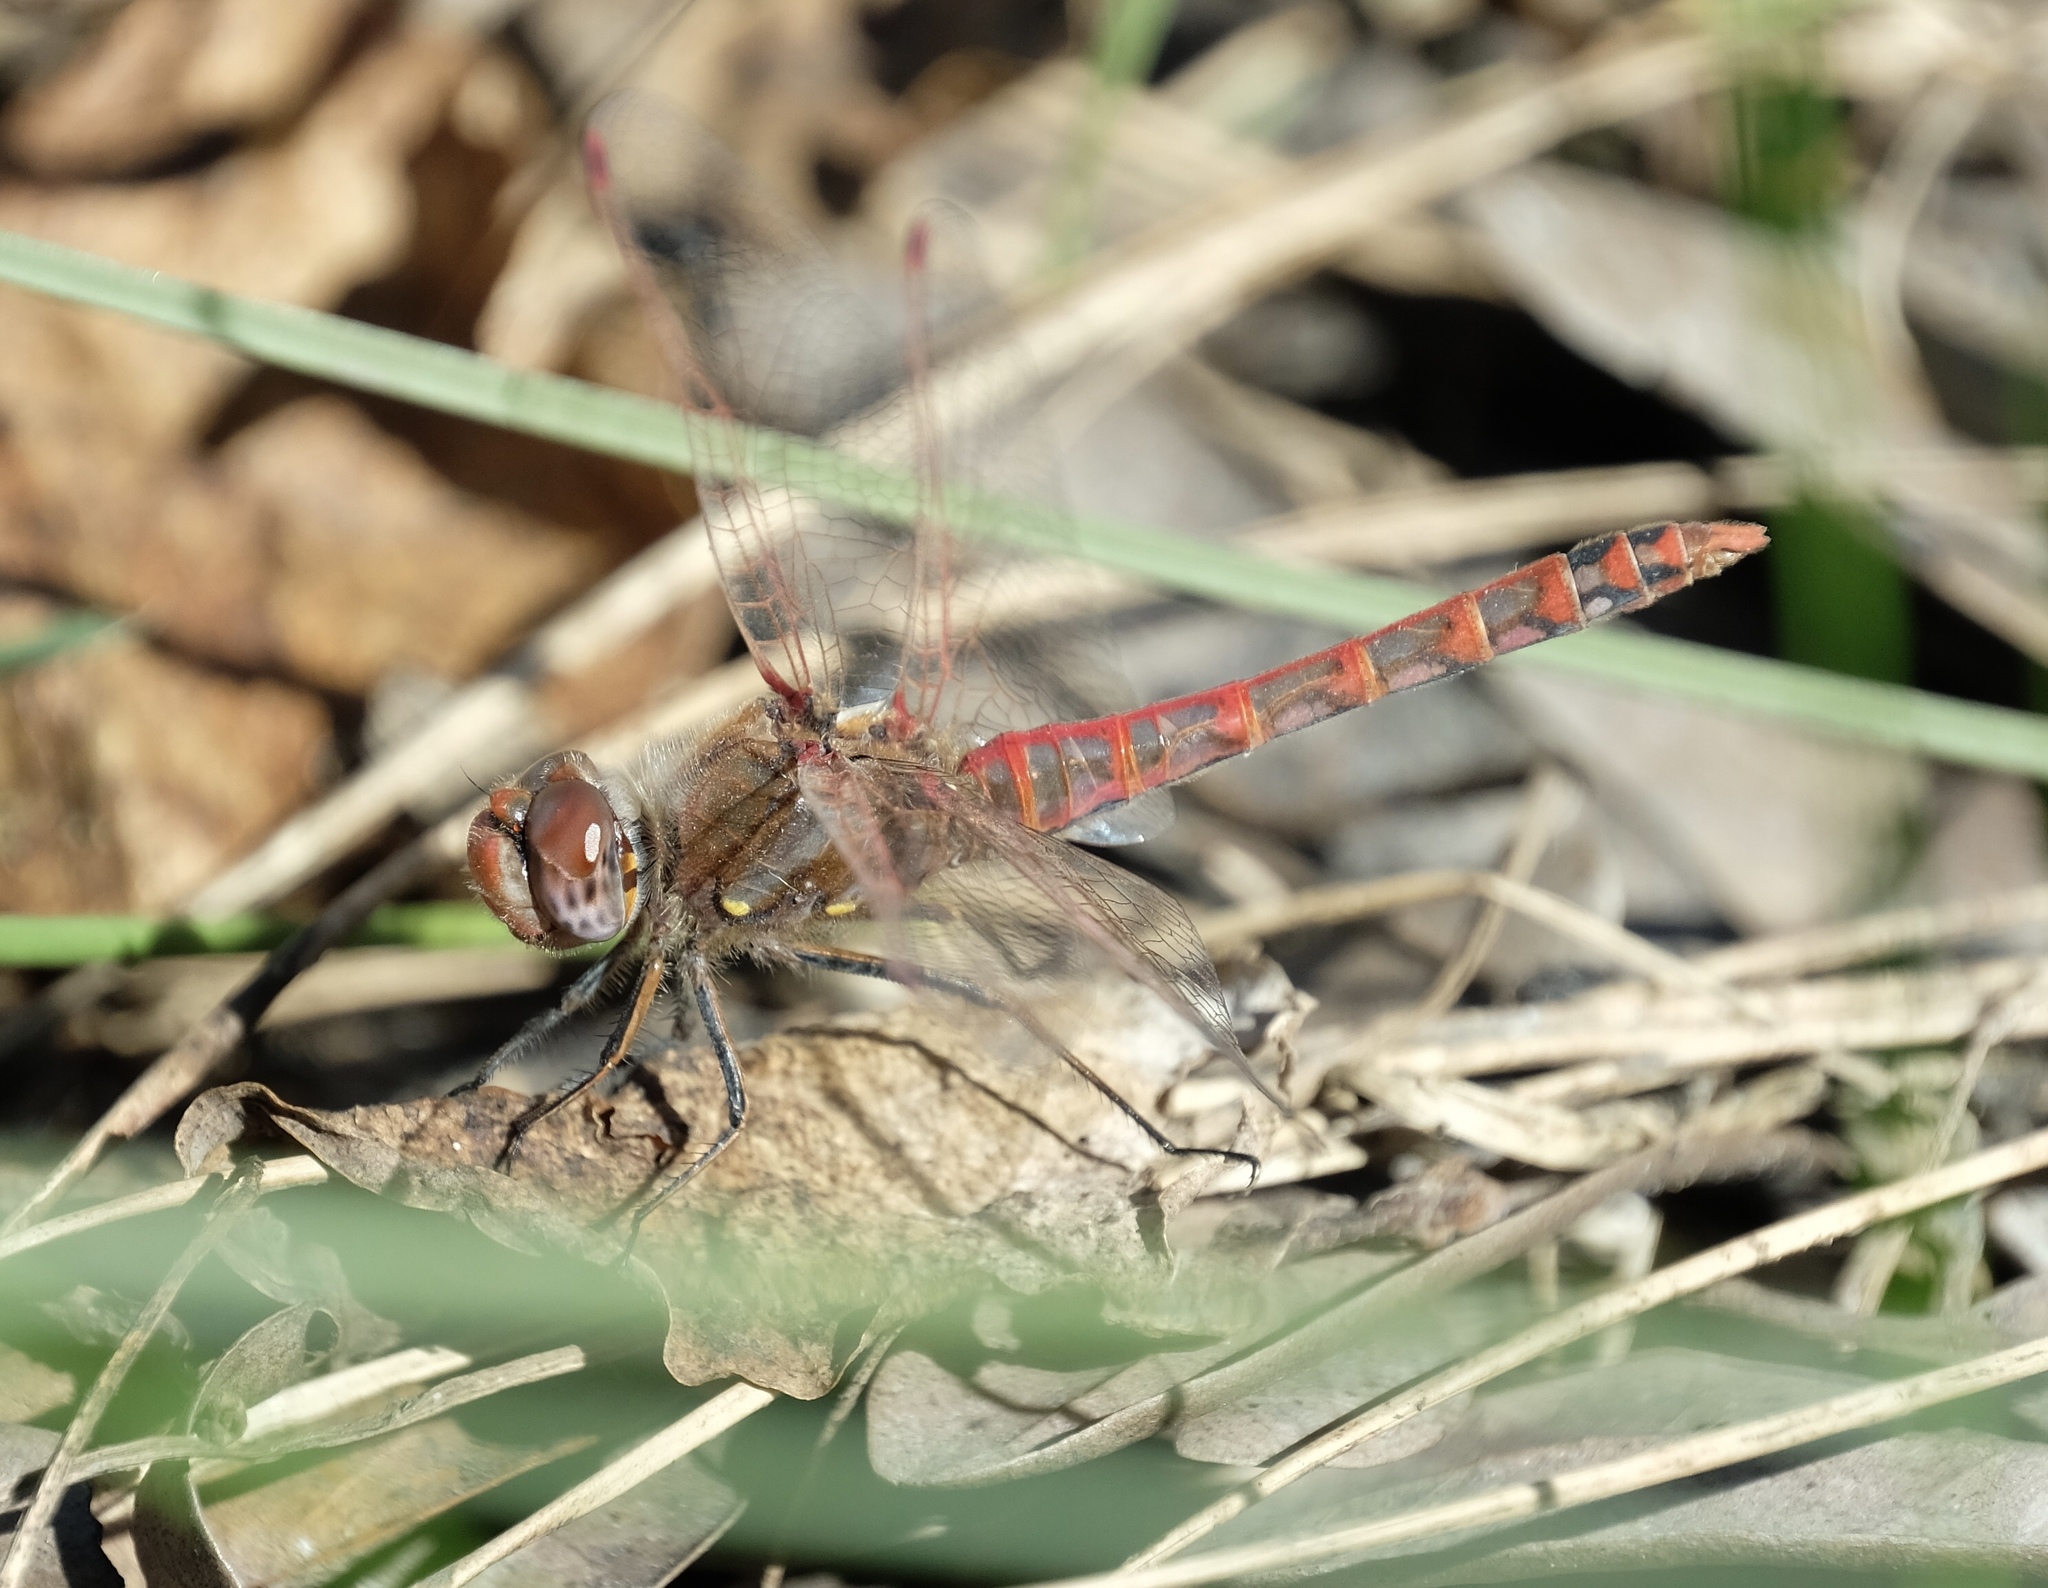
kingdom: Animalia
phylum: Arthropoda
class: Insecta
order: Odonata
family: Libellulidae
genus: Sympetrum
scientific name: Sympetrum corruptum
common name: Variegated meadowhawk
